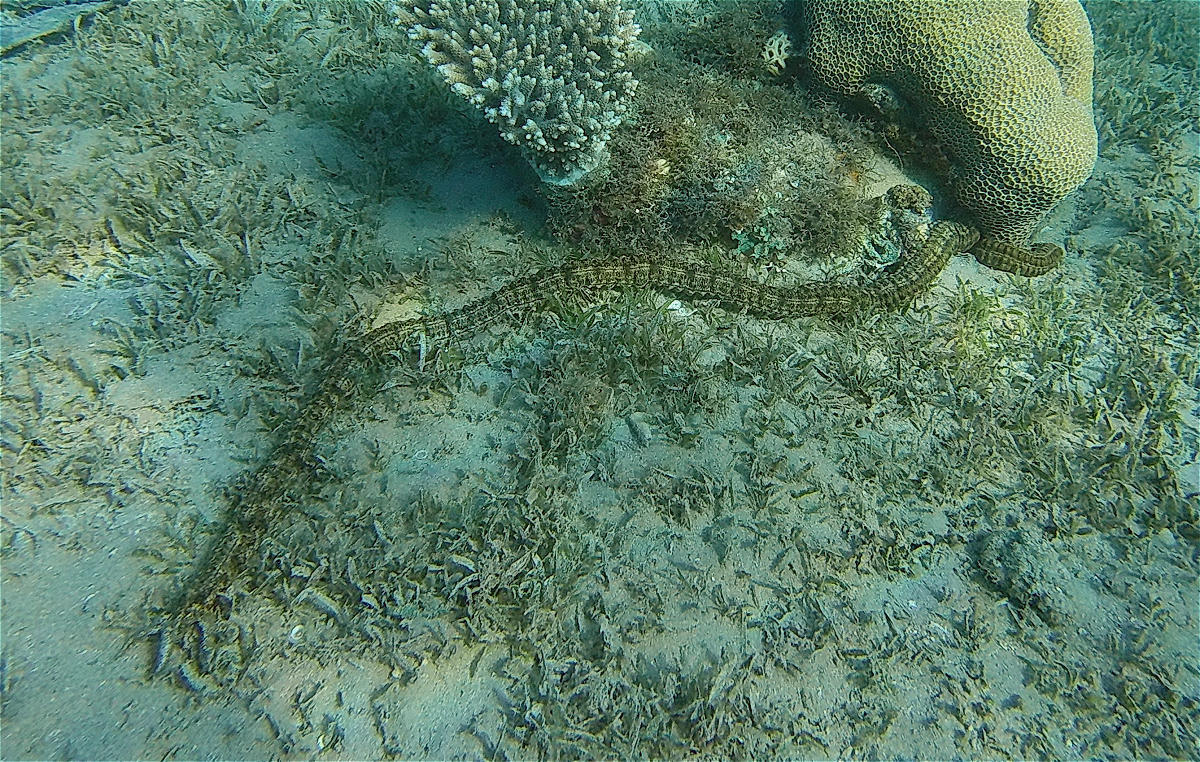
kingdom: Animalia
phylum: Echinodermata
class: Holothuroidea
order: Apodida
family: Synaptidae
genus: Synapta
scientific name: Synapta maculata
